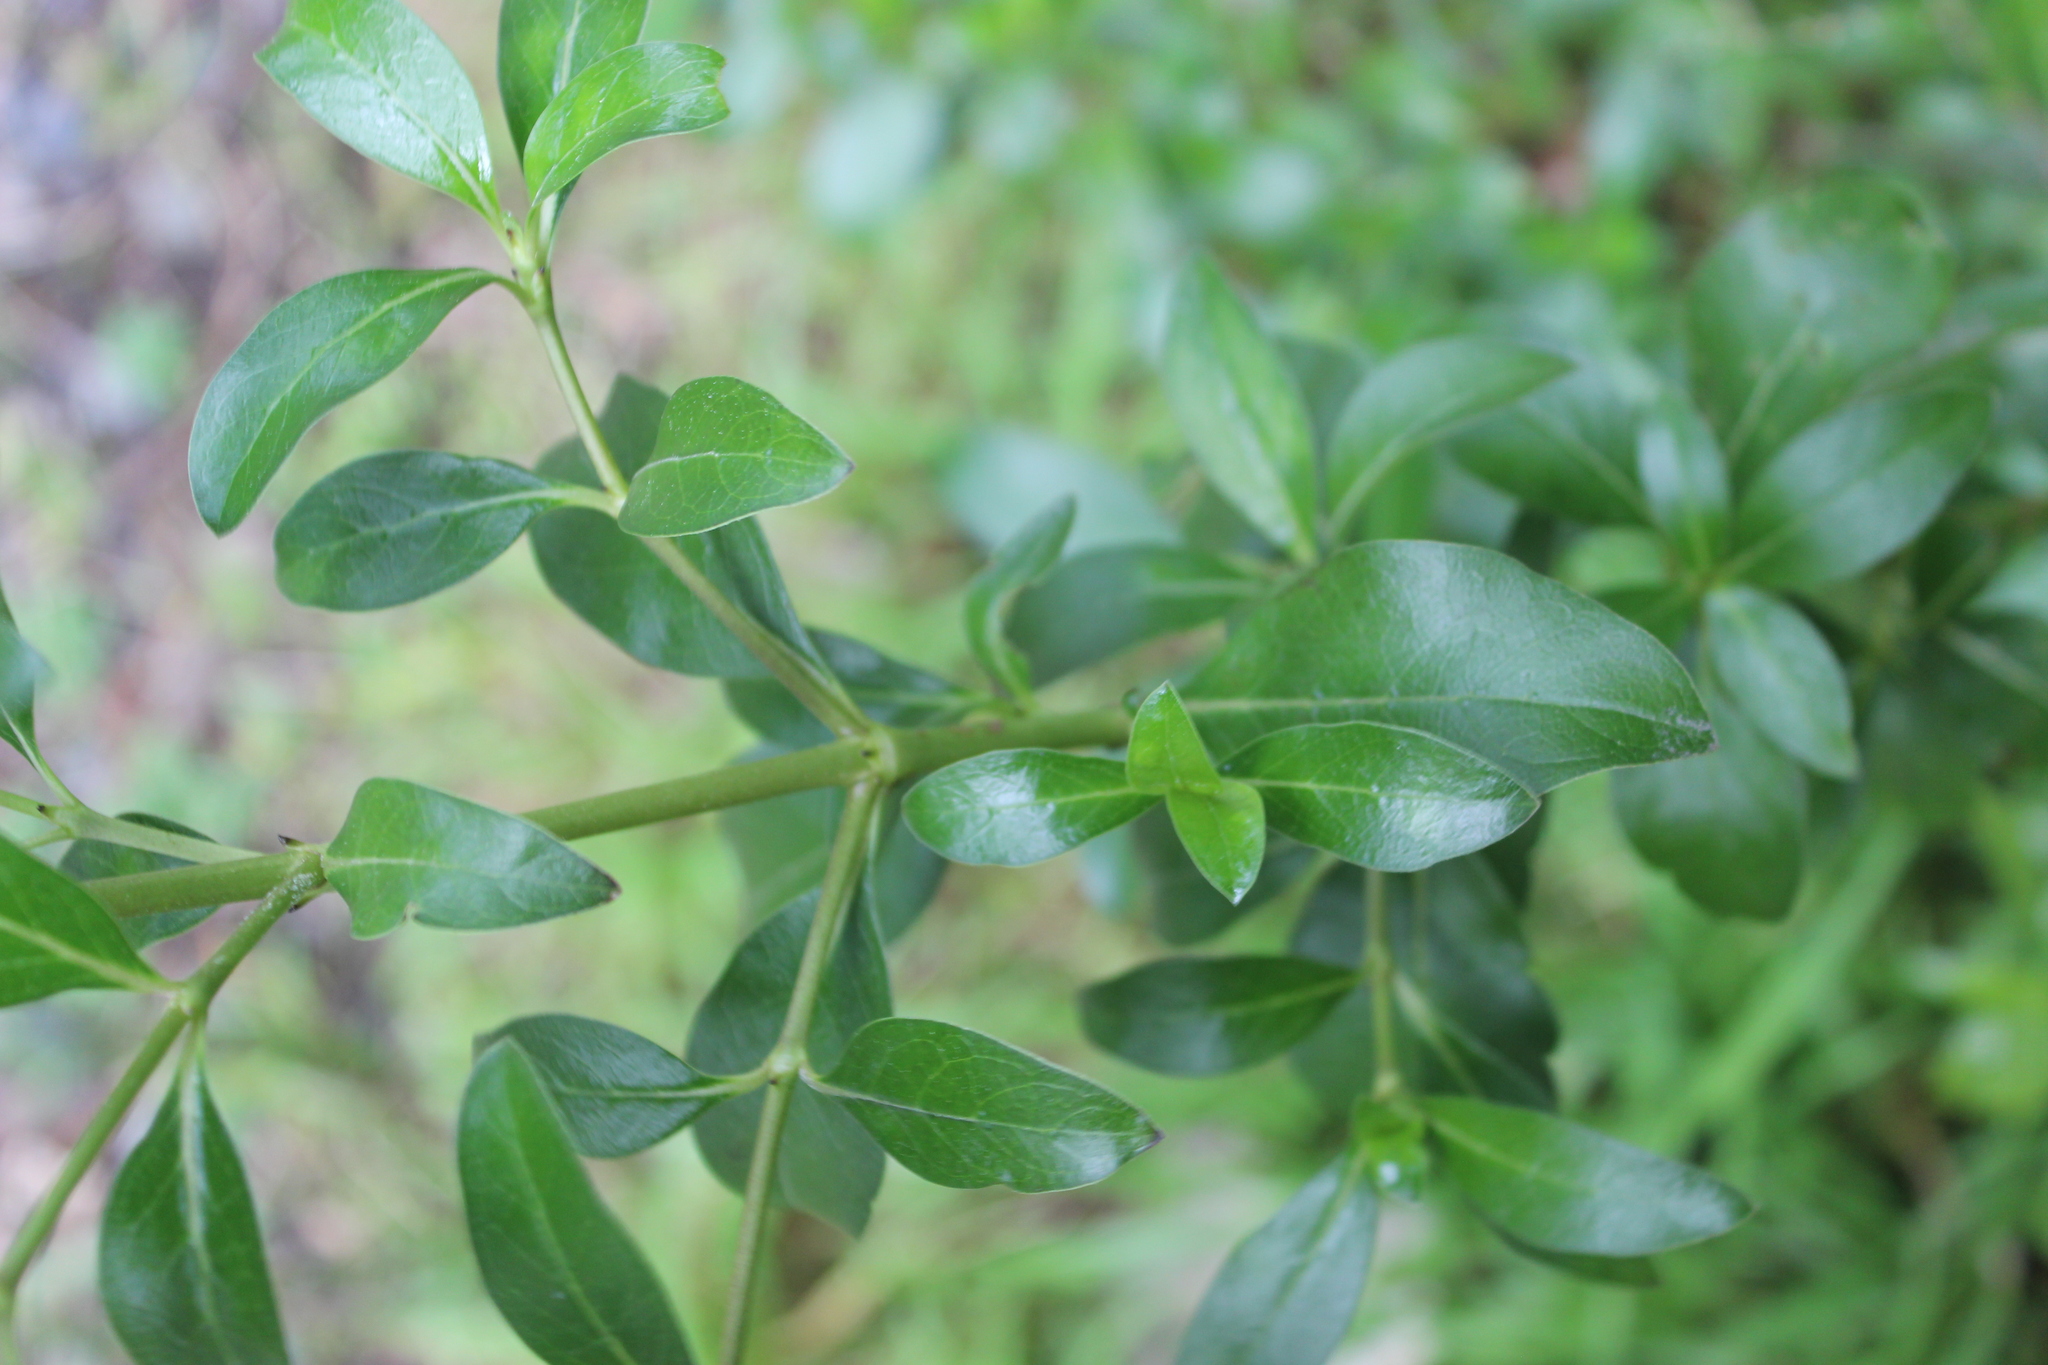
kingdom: Plantae
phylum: Tracheophyta
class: Magnoliopsida
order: Gentianales
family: Rubiaceae
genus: Coprosma
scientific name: Coprosma cunninghamii
